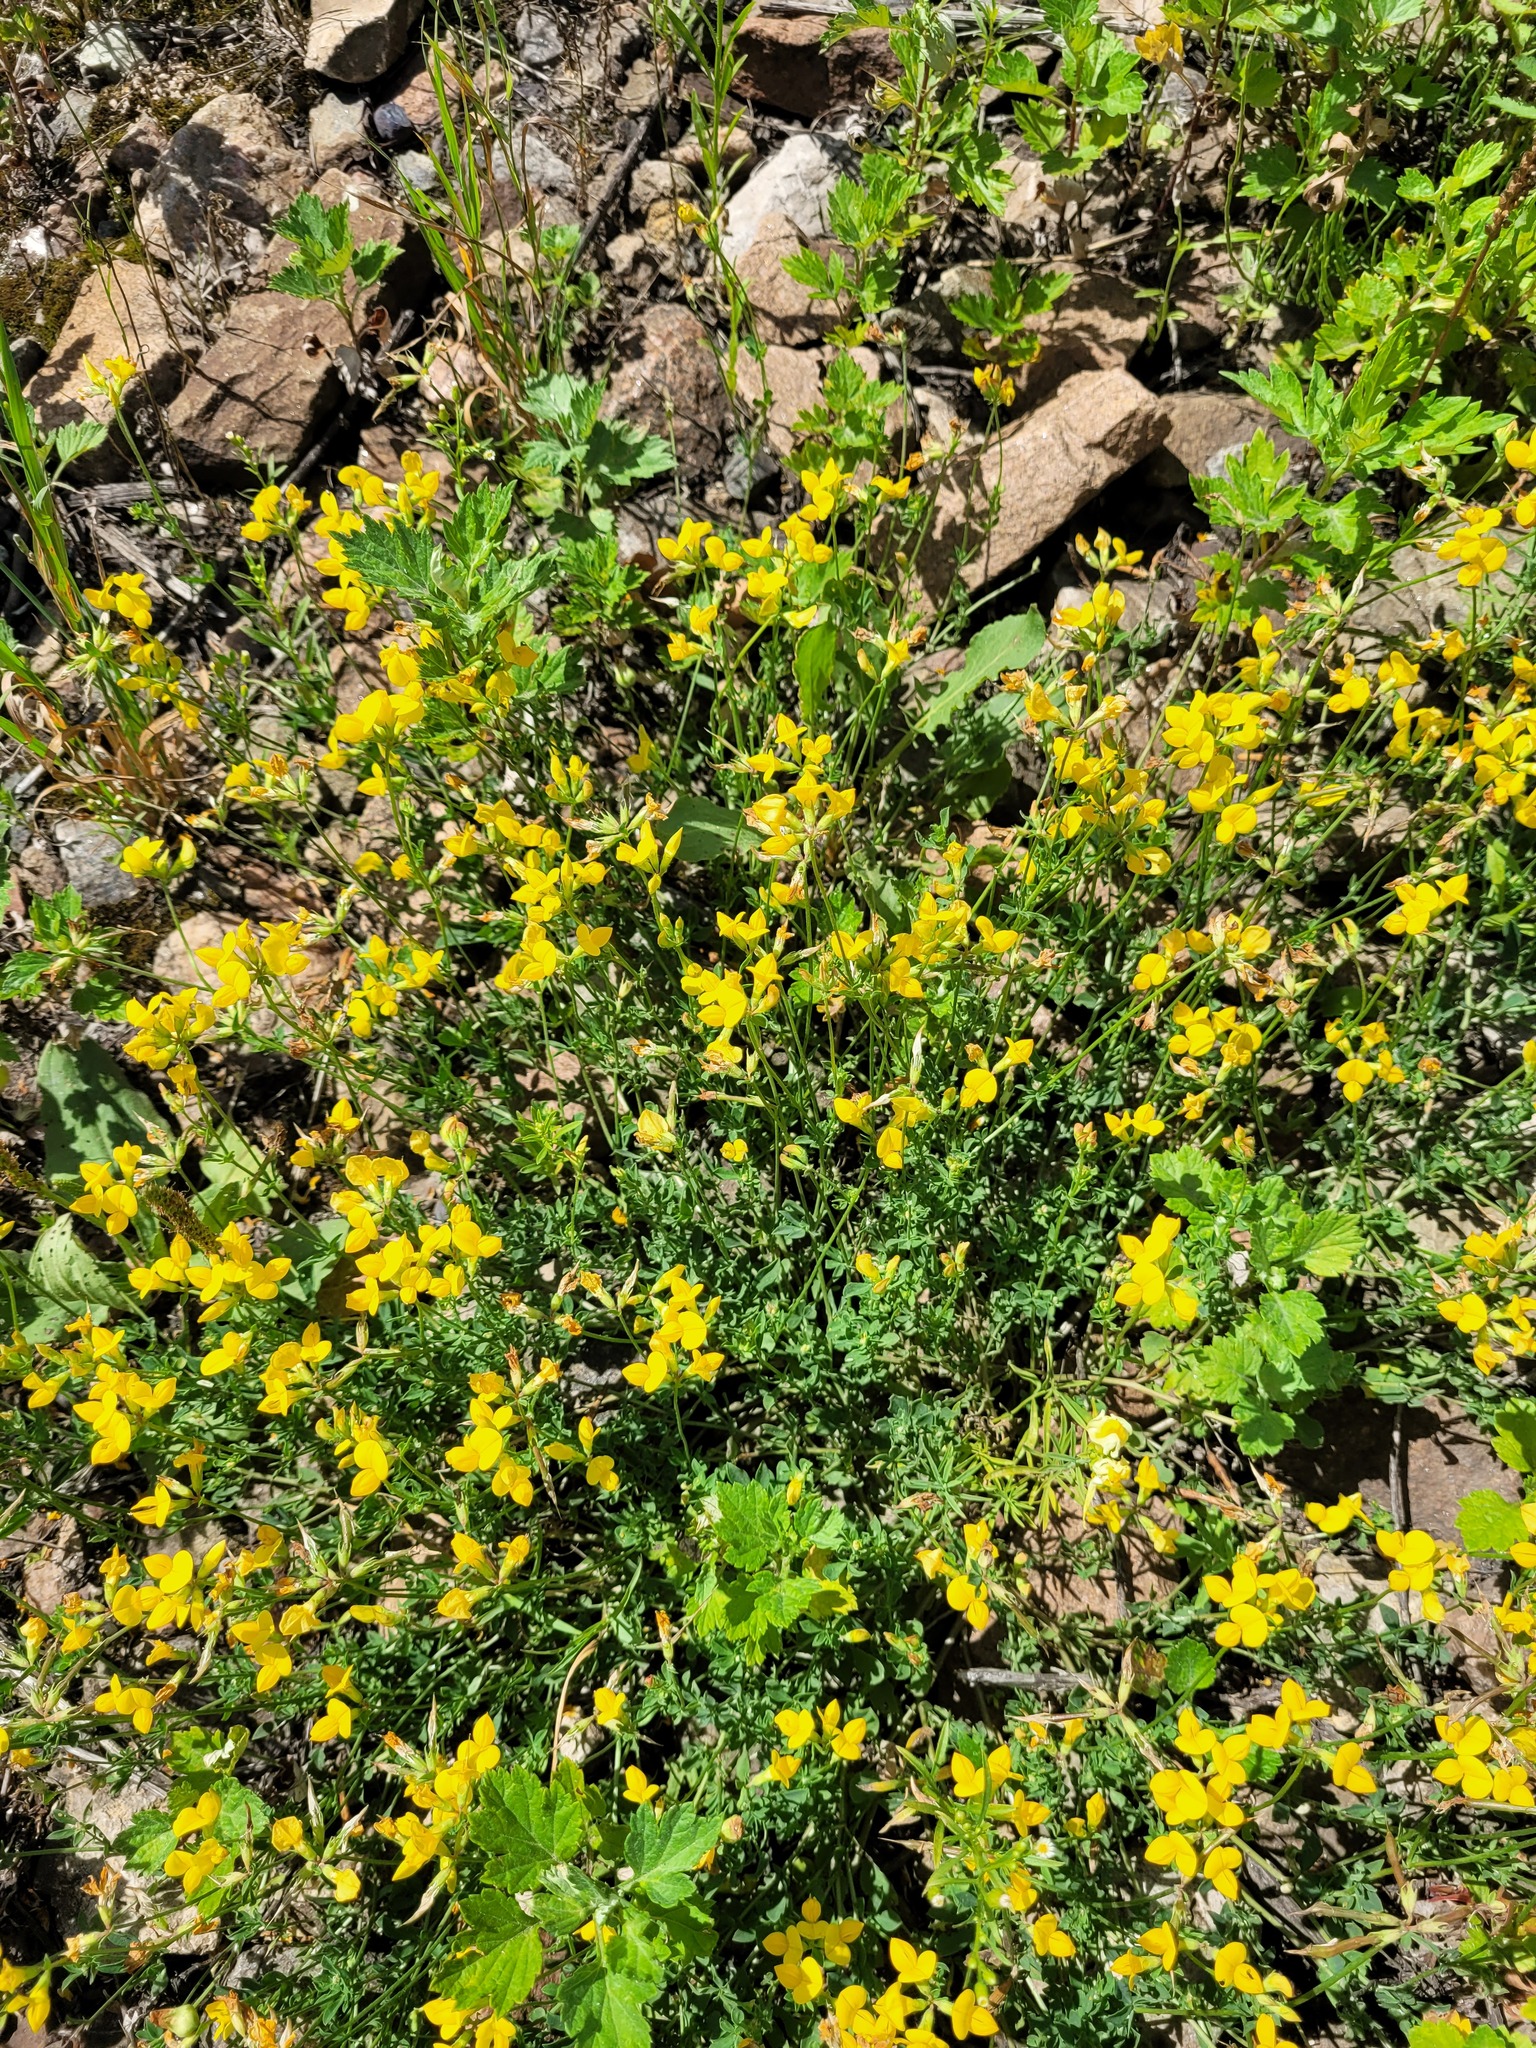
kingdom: Plantae
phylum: Tracheophyta
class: Magnoliopsida
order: Fabales
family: Fabaceae
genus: Lotus
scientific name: Lotus corniculatus
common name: Common bird's-foot-trefoil
